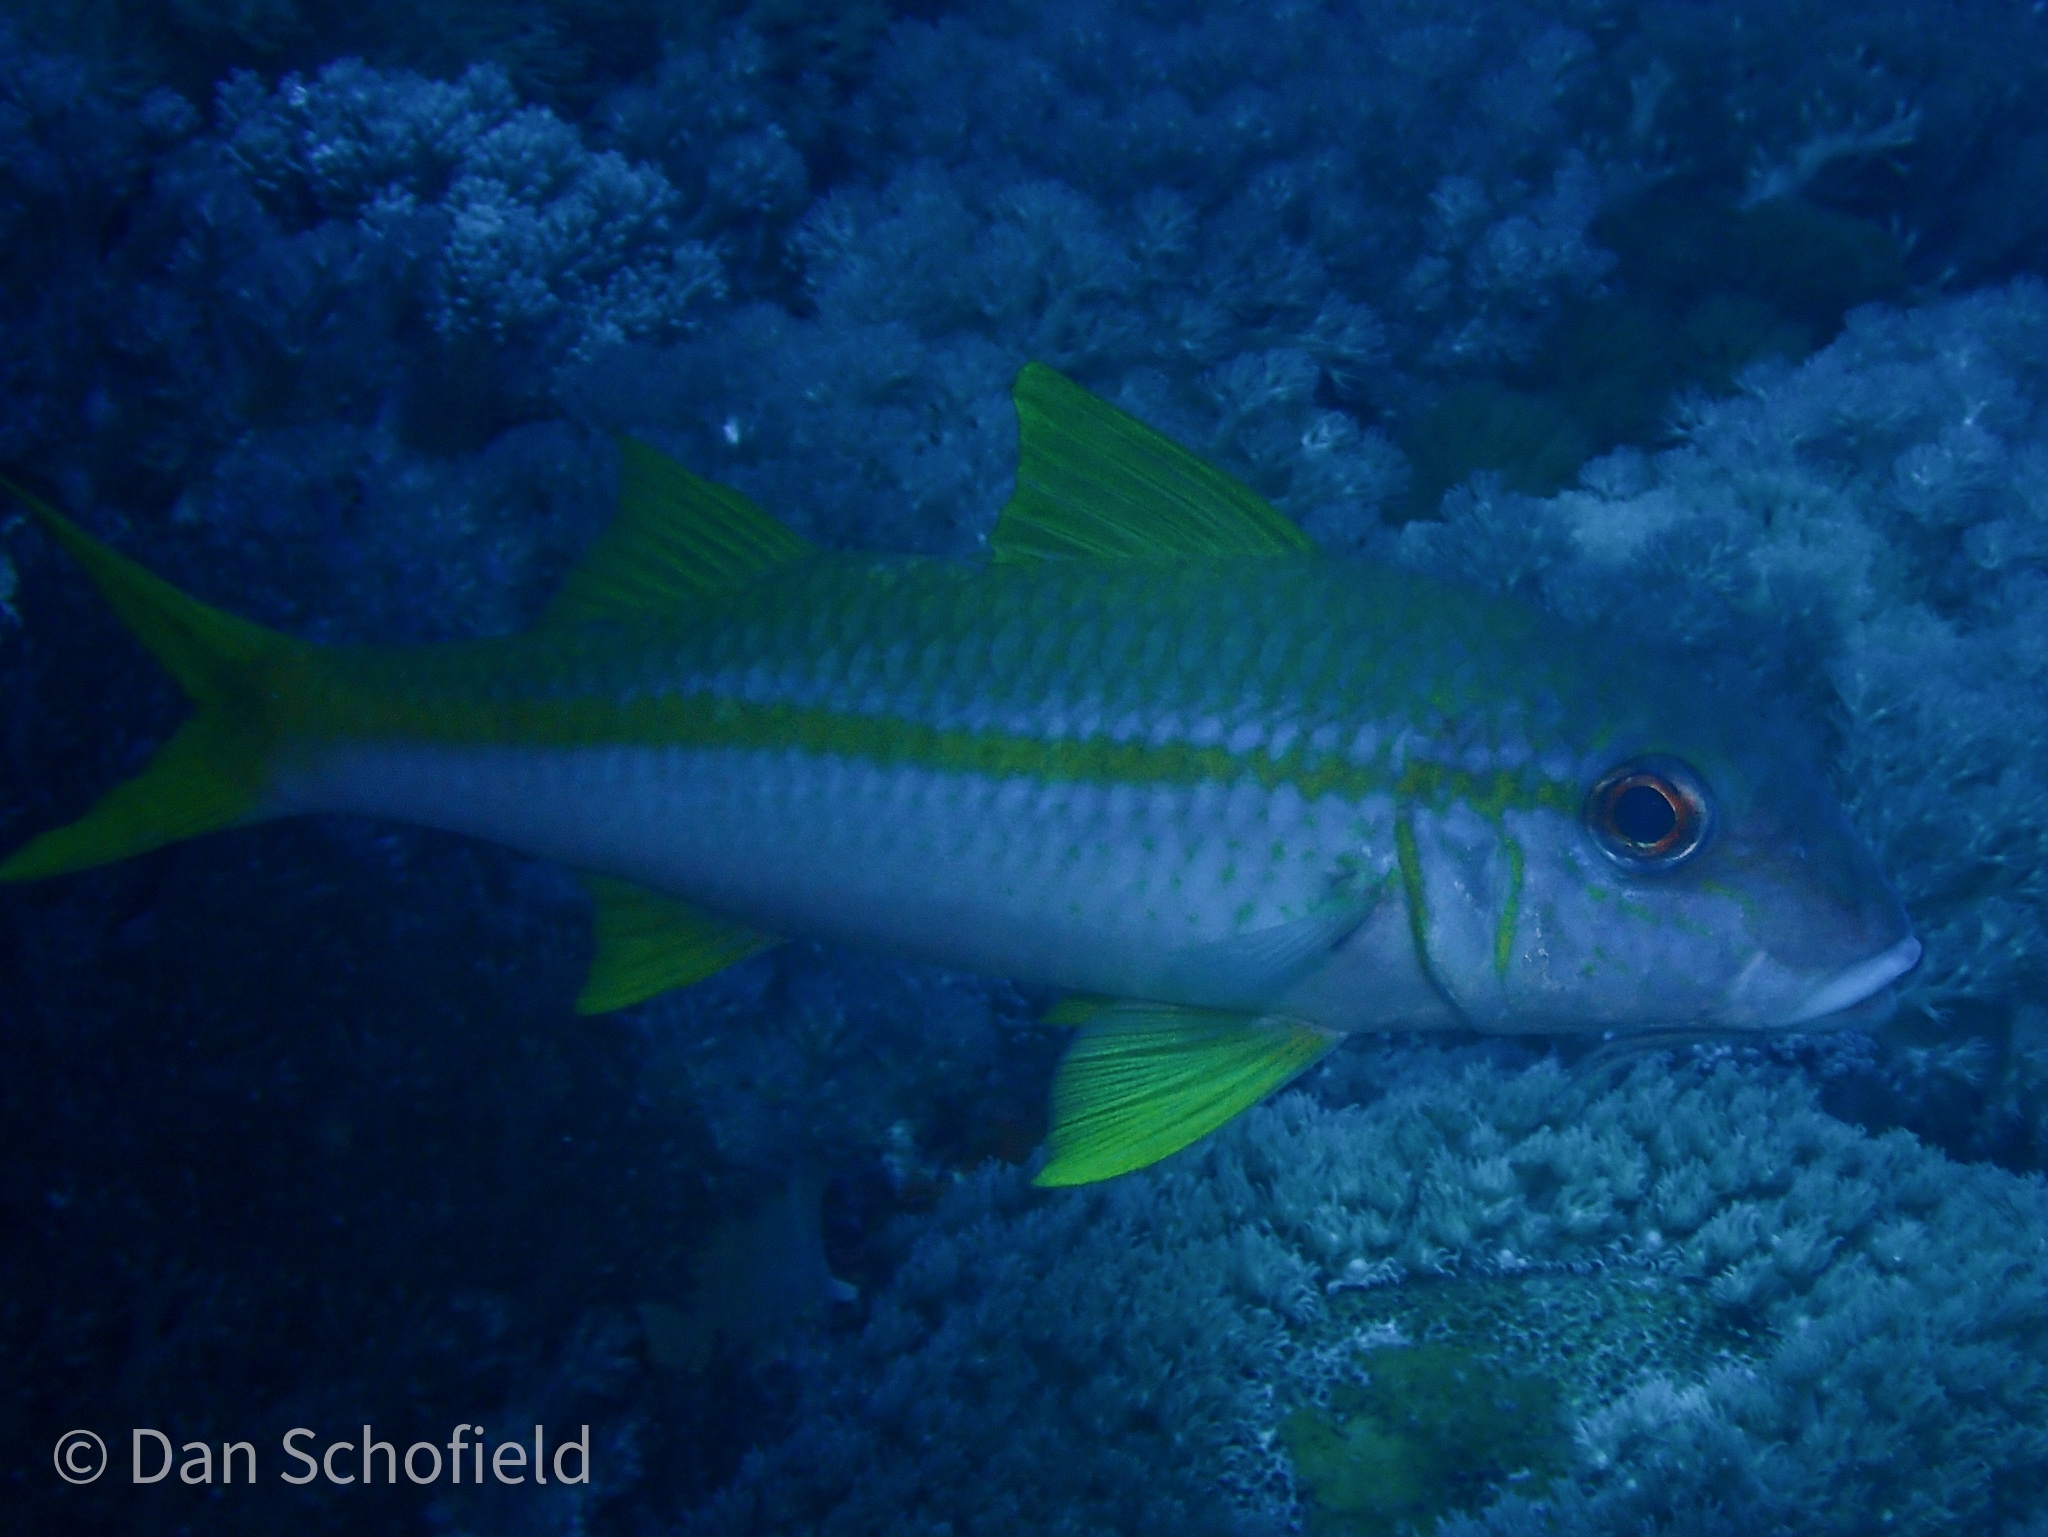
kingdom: Animalia
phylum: Chordata
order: Perciformes
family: Mullidae
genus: Mulloidichthys
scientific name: Mulloidichthys vanicolensis
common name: Yellowfin goatfish
